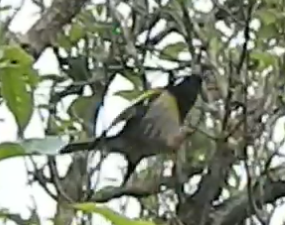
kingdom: Animalia
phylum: Chordata
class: Aves
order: Passeriformes
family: Notiomystidae
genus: Notiomystis
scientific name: Notiomystis cincta
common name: Stitchbird
